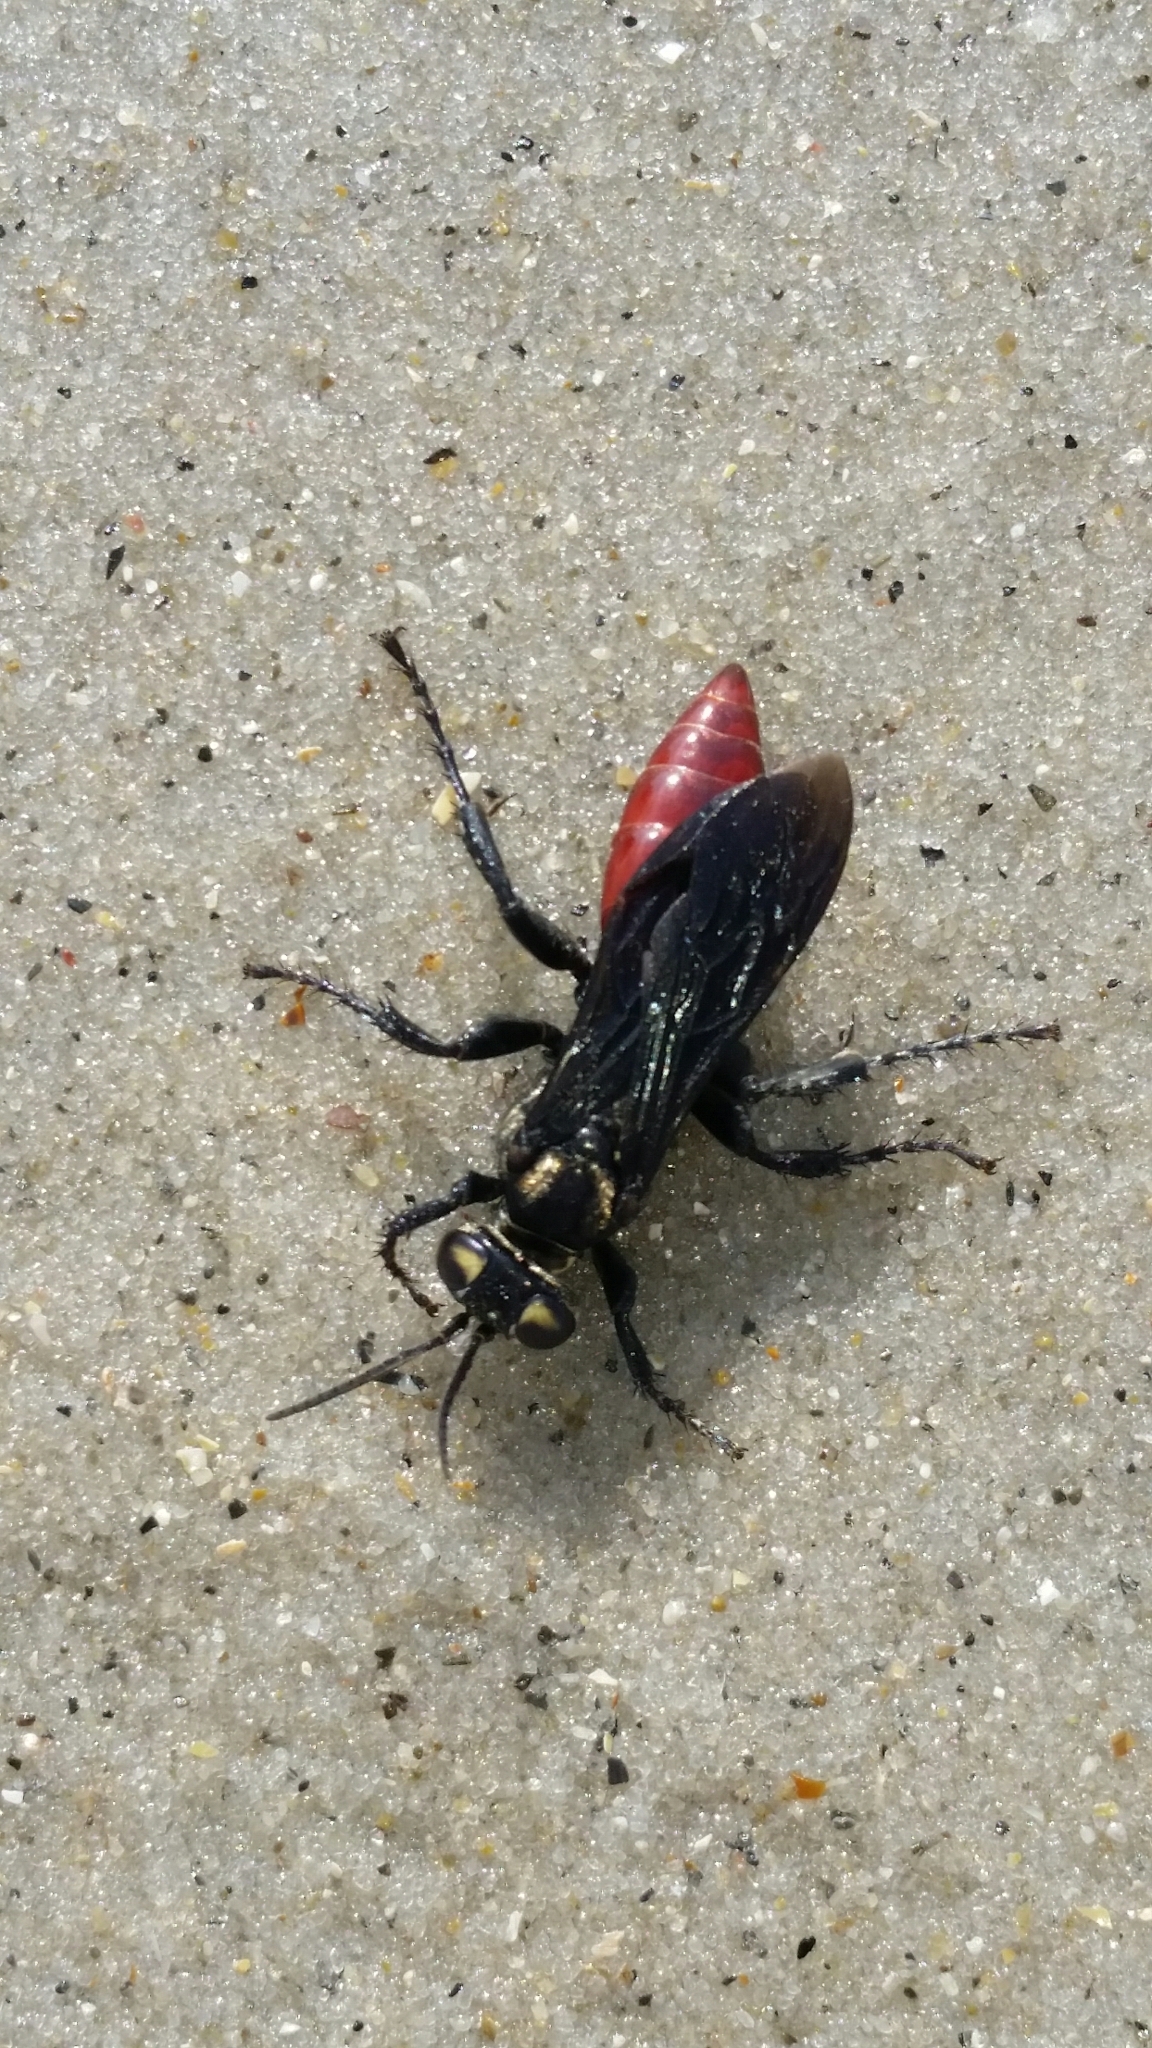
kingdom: Animalia
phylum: Arthropoda
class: Insecta
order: Hymenoptera
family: Crabronidae
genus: Larra
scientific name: Larra bicolor
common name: Wasp
